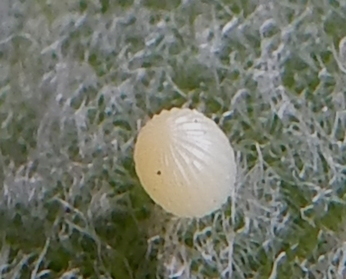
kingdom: Animalia
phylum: Arthropoda
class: Insecta
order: Lepidoptera
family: Nymphalidae
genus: Danaus
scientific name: Danaus plexippus
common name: Monarch
